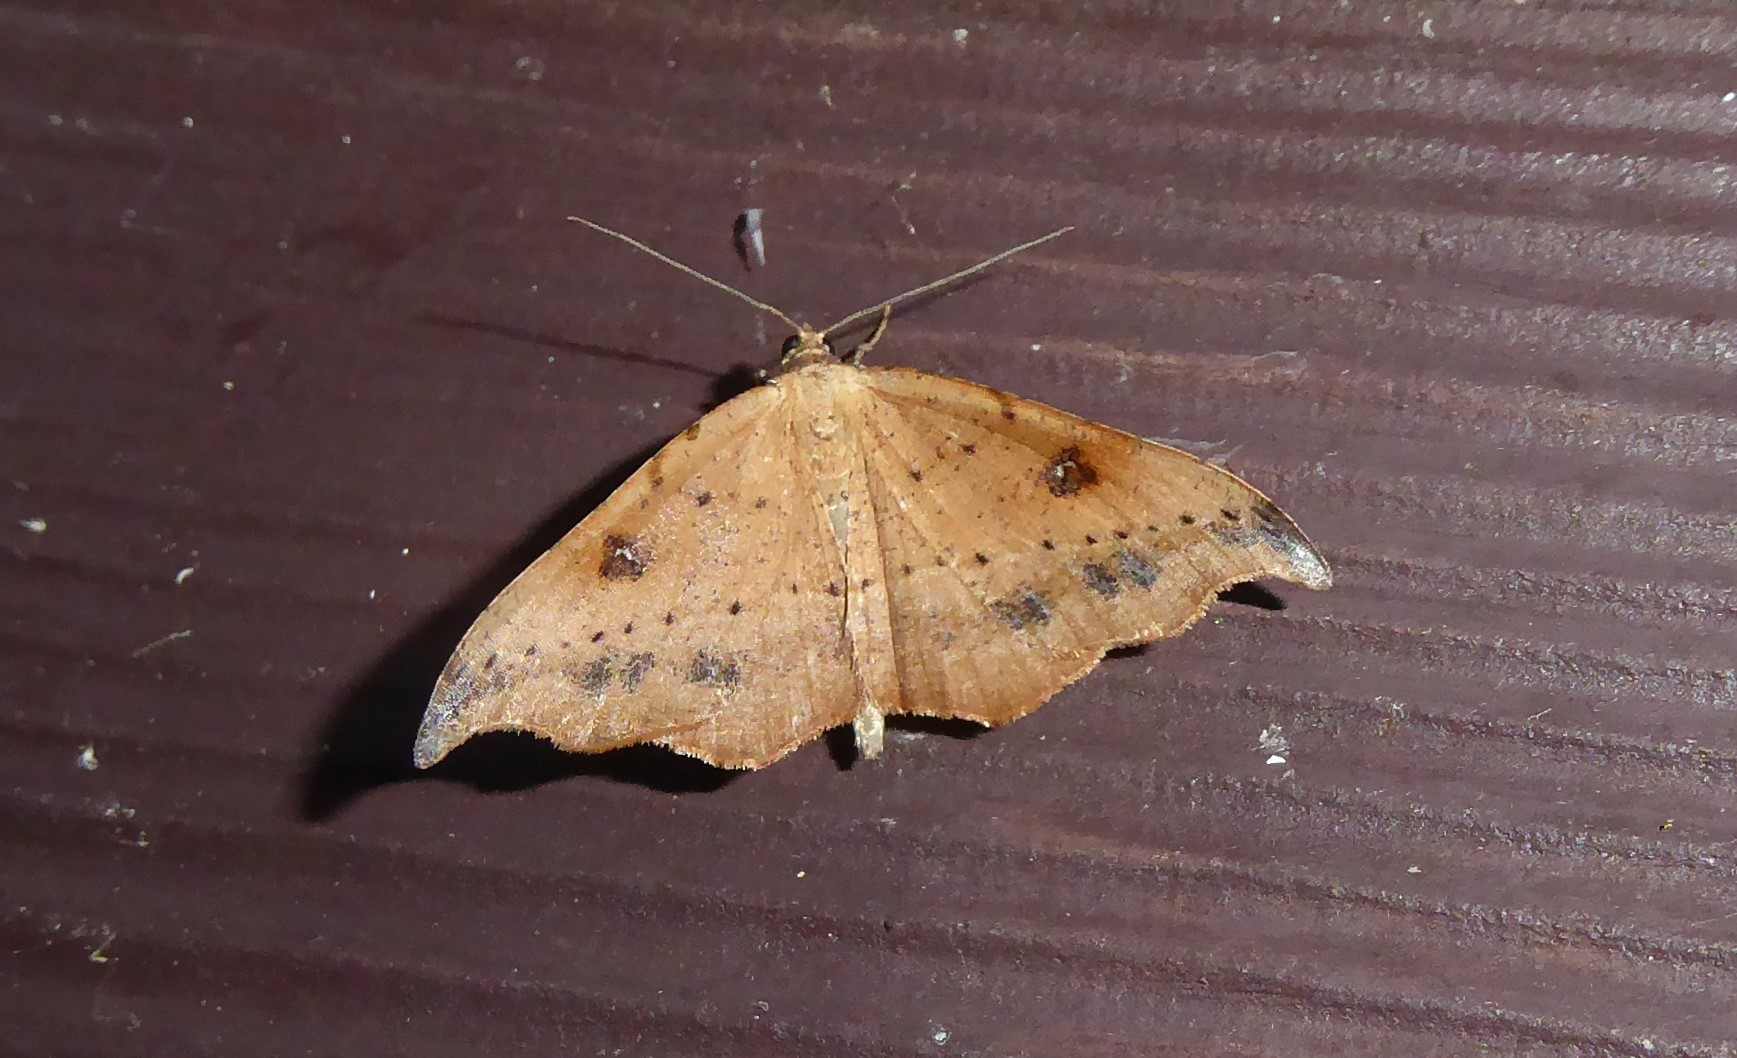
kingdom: Animalia
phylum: Arthropoda
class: Insecta
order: Lepidoptera
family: Geometridae
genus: Sarisa
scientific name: Sarisa muriferata
